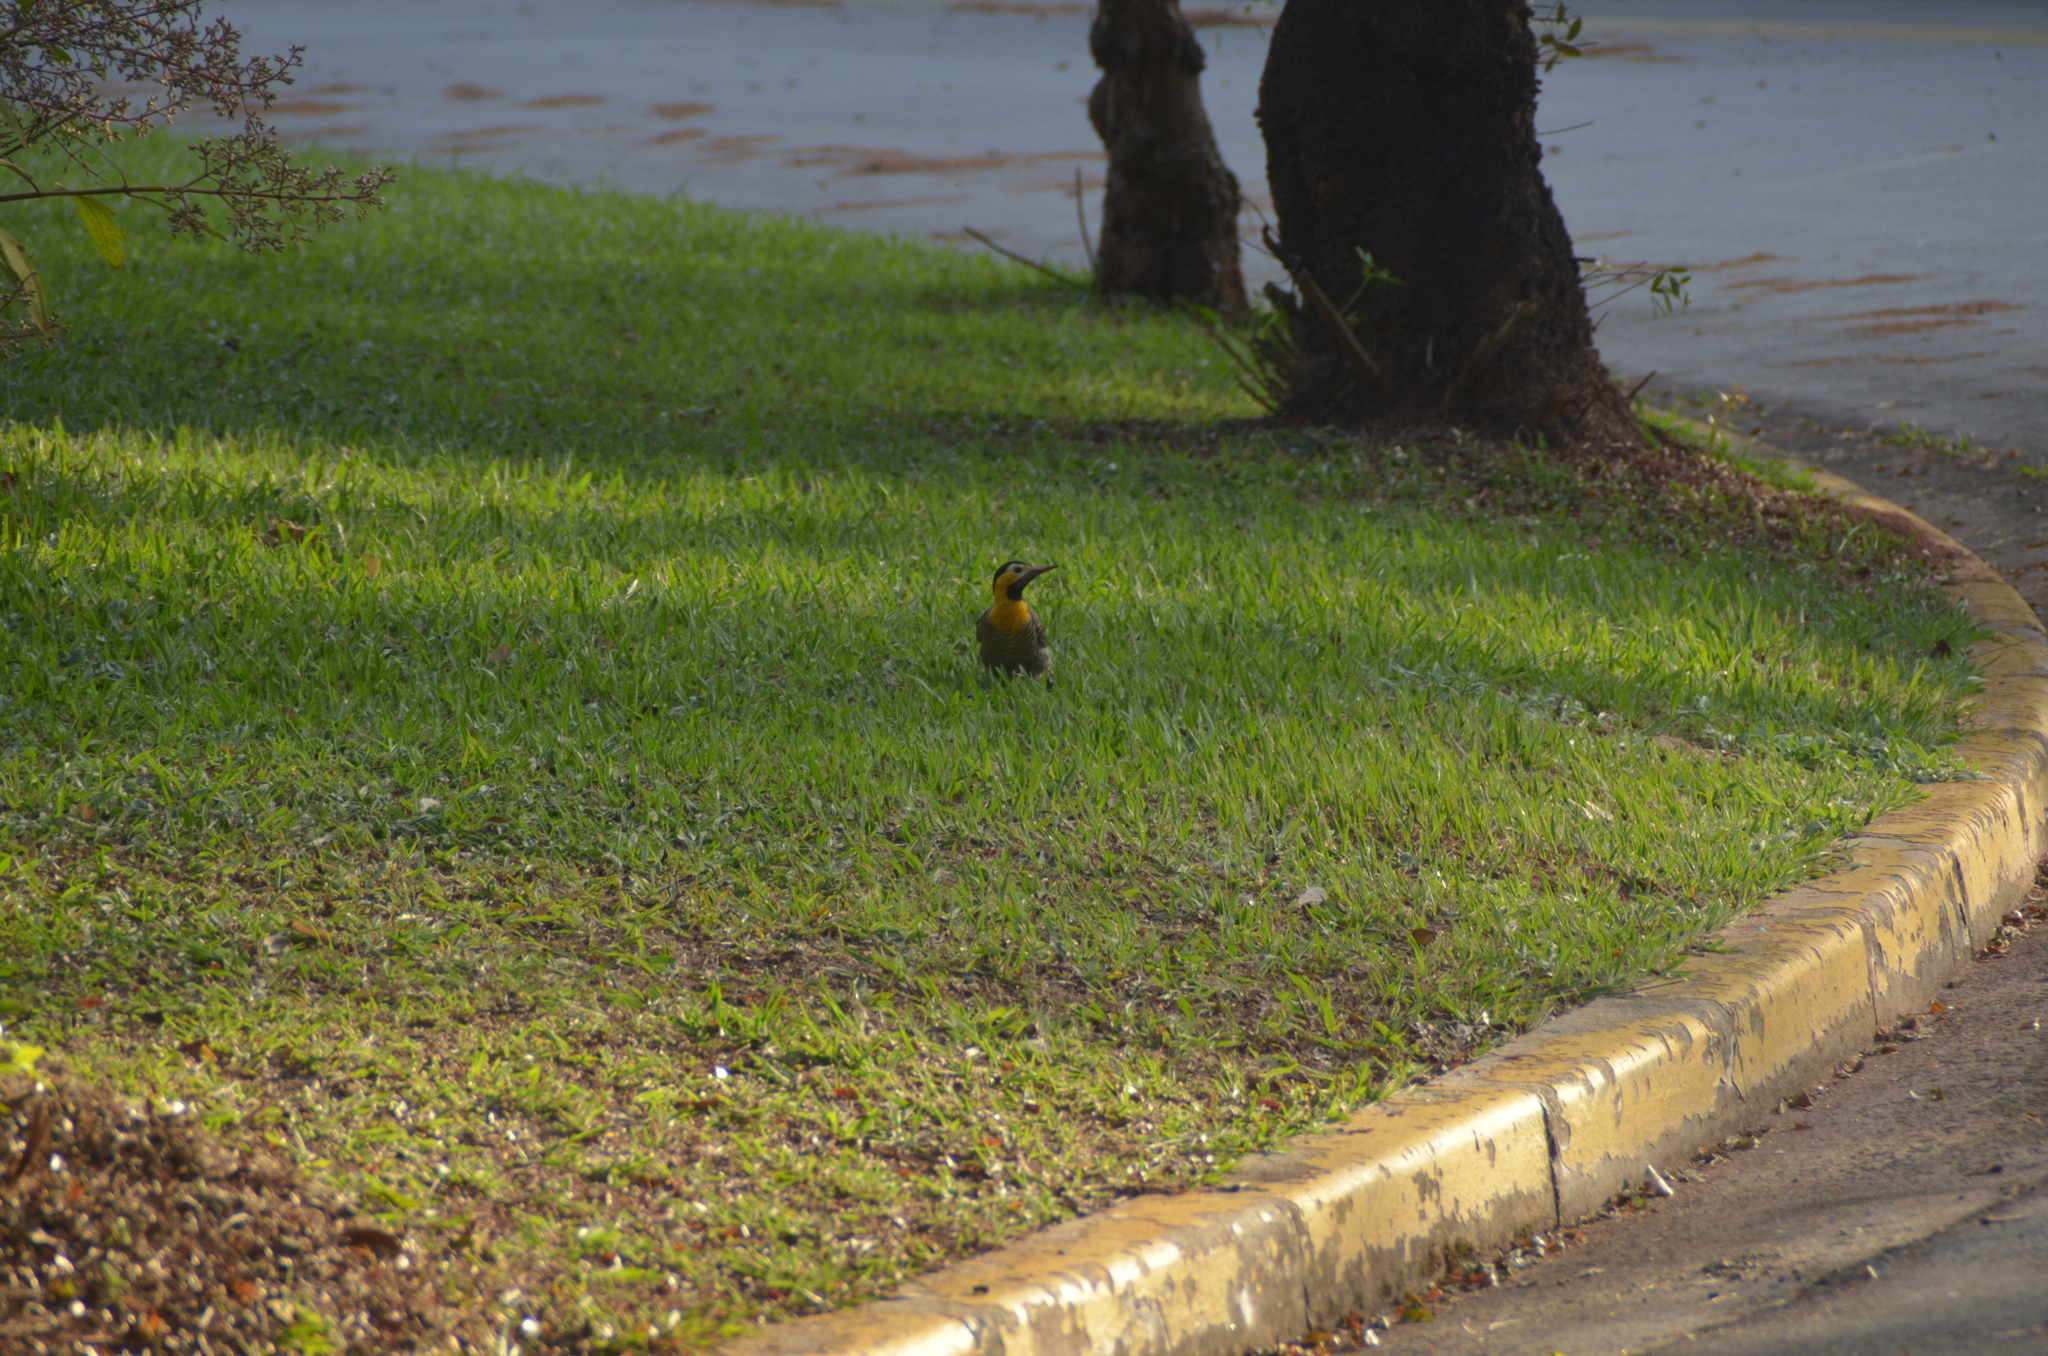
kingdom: Animalia
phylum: Chordata
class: Aves
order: Piciformes
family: Picidae
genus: Colaptes
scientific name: Colaptes campestris
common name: Campo flicker
